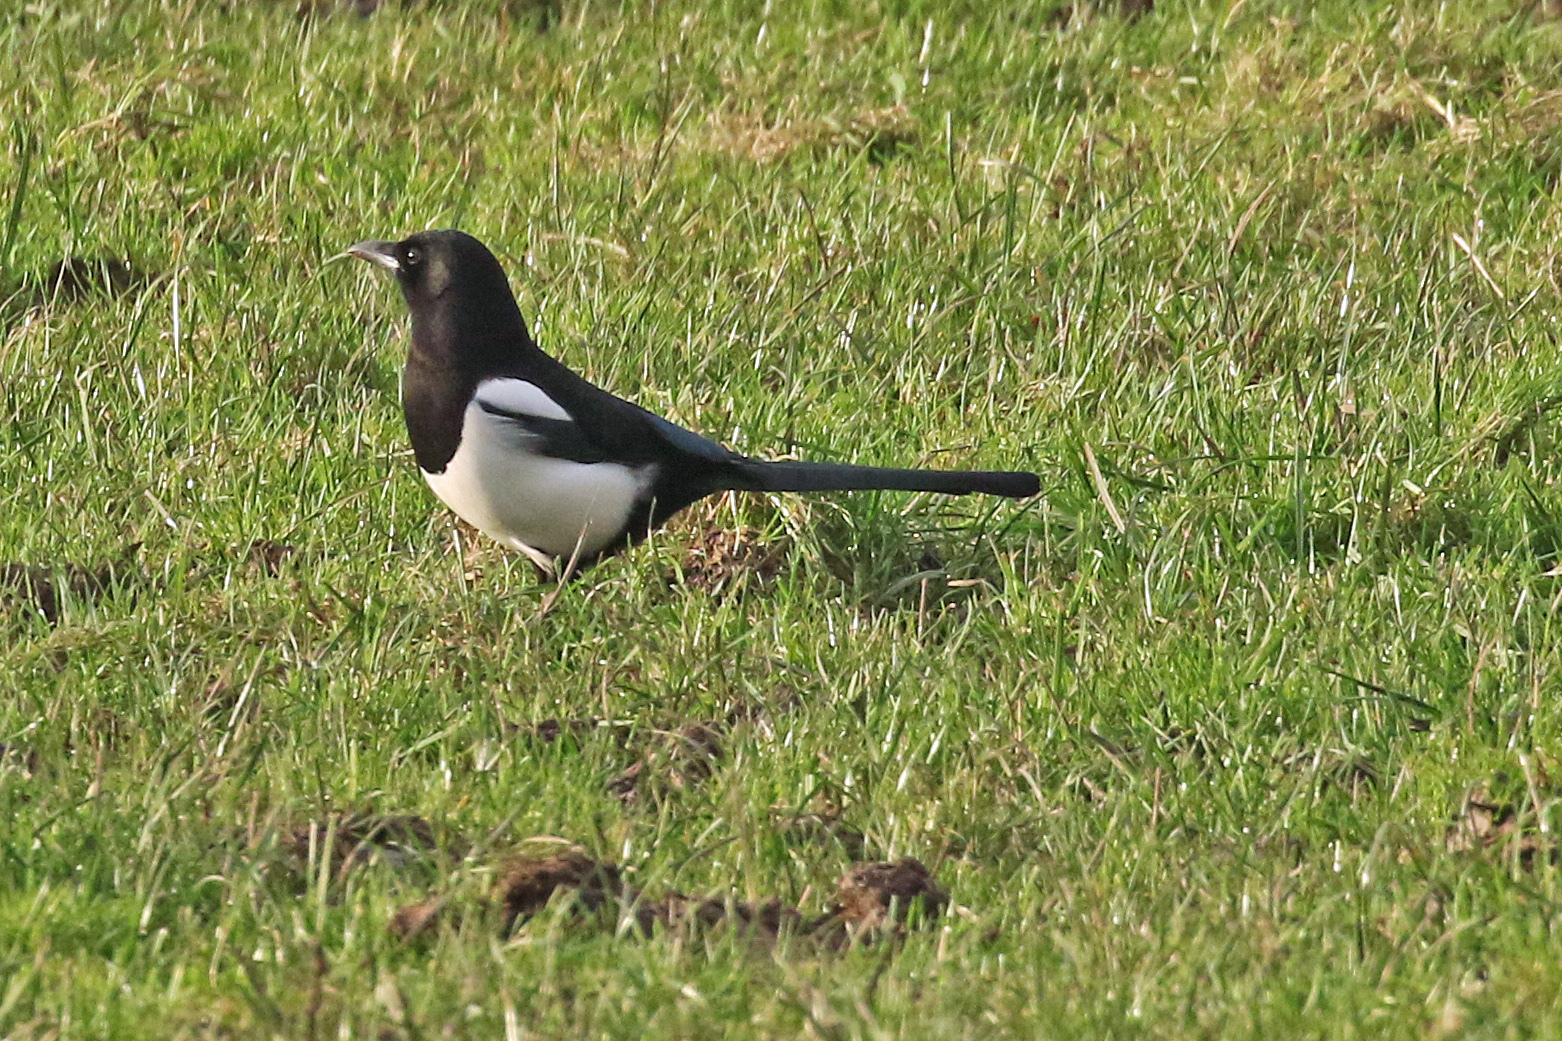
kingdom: Animalia
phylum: Chordata
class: Aves
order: Passeriformes
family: Corvidae
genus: Pica
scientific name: Pica pica
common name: Eurasian magpie
